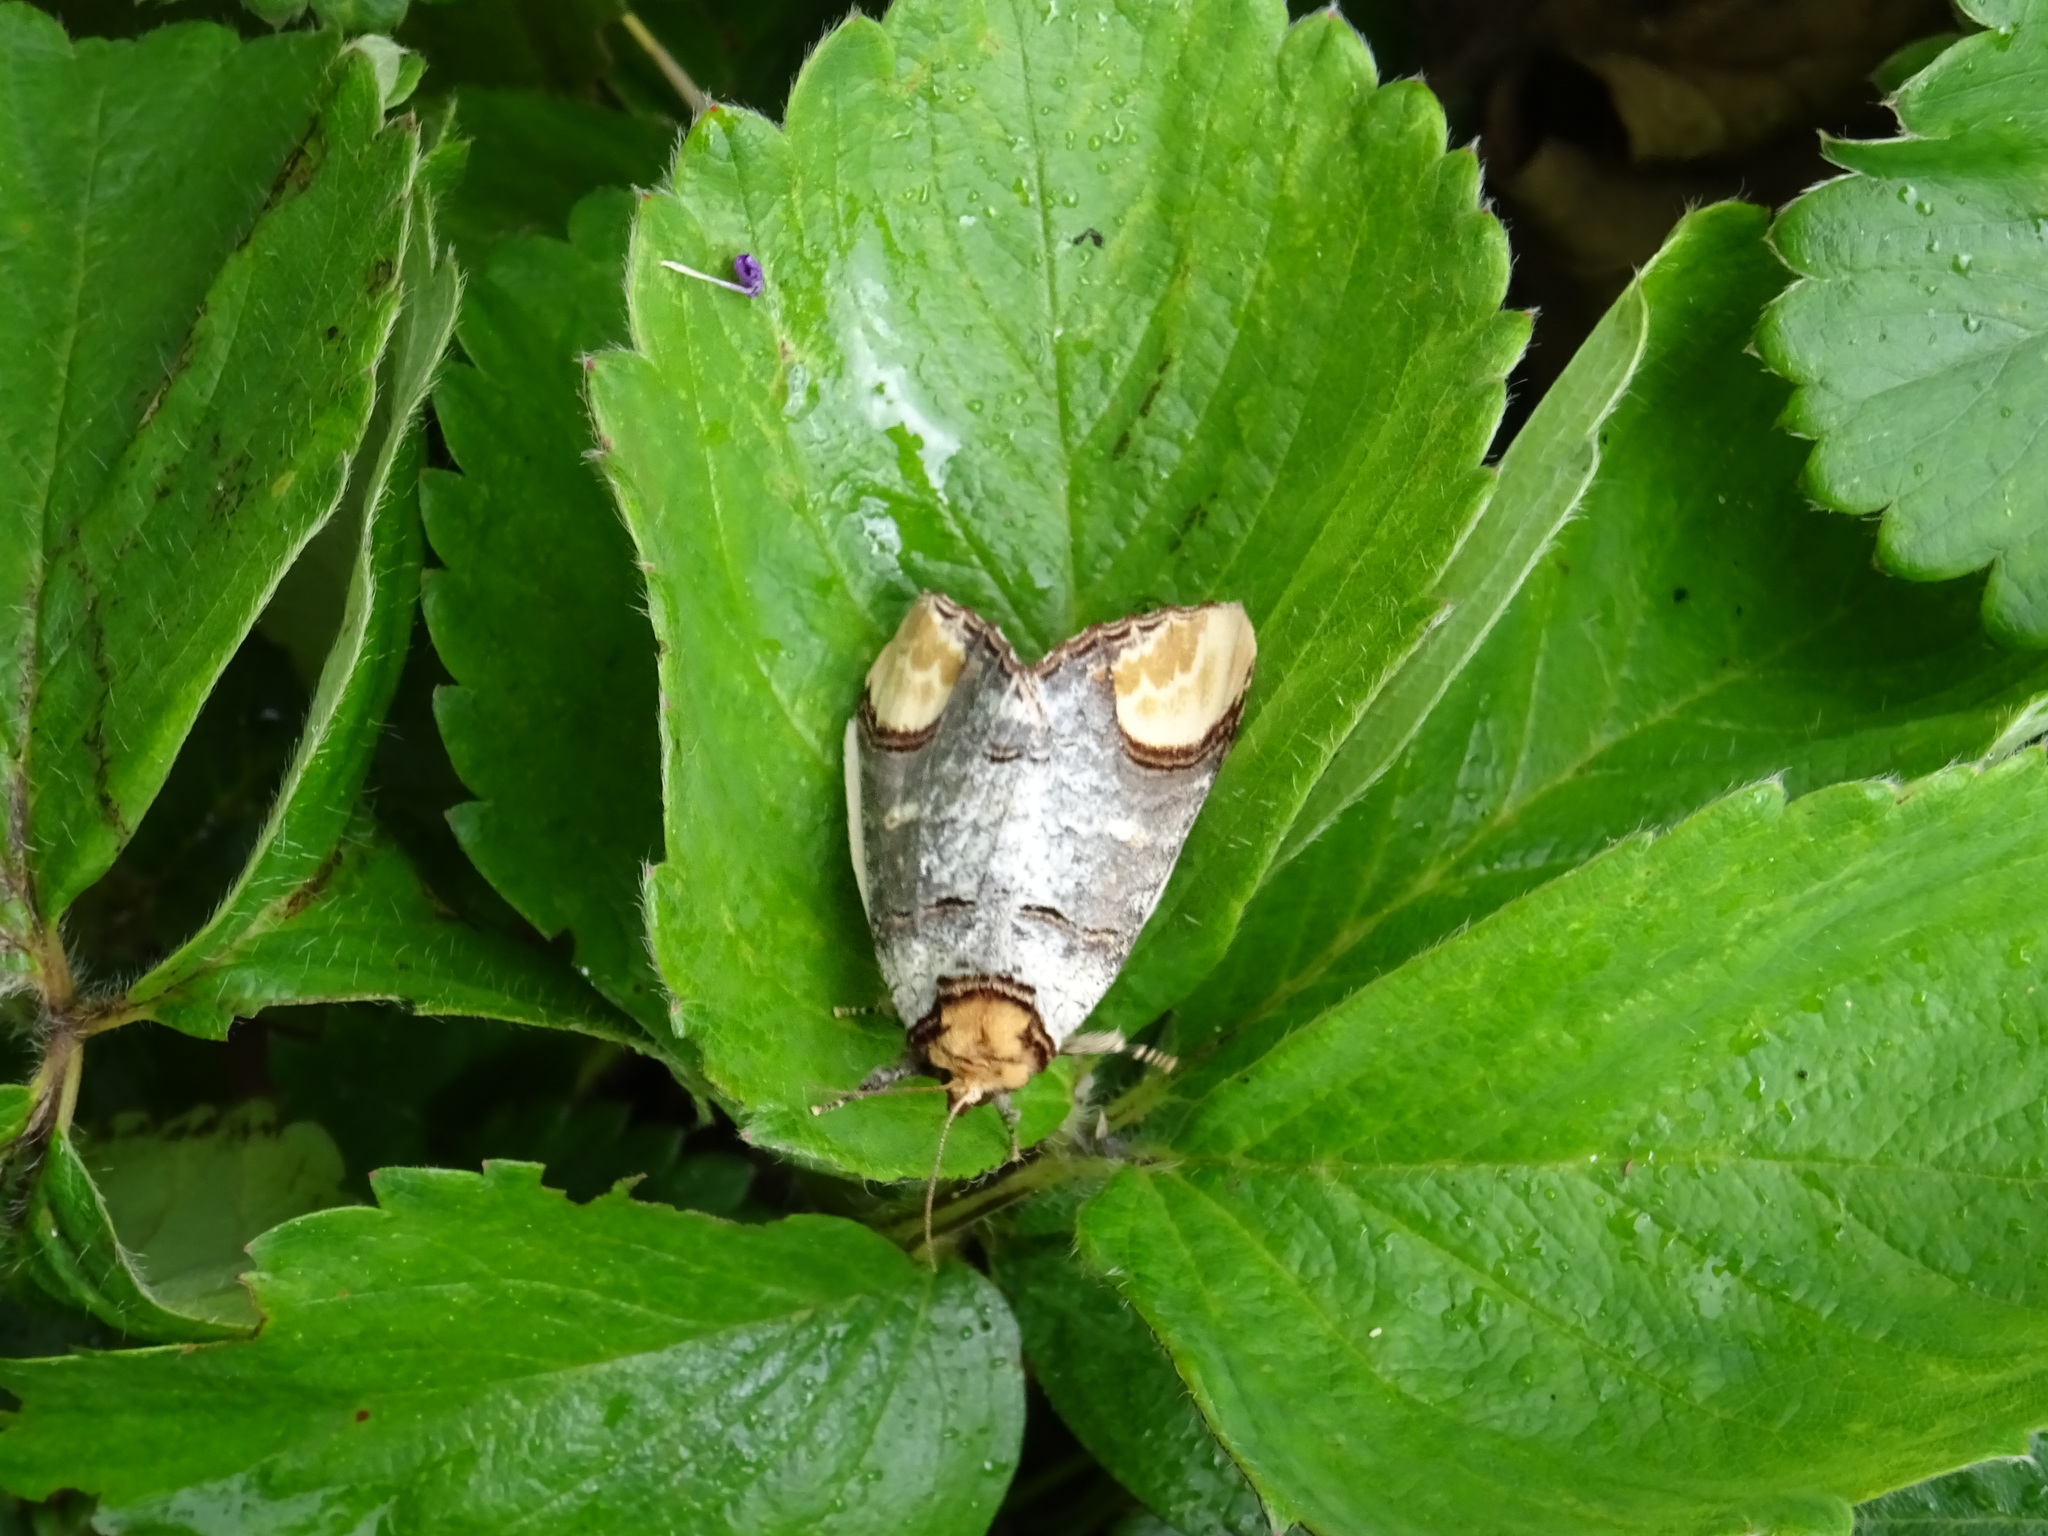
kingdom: Animalia
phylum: Arthropoda
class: Insecta
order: Lepidoptera
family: Notodontidae
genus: Phalera
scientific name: Phalera bucephala
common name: Buff-tip
